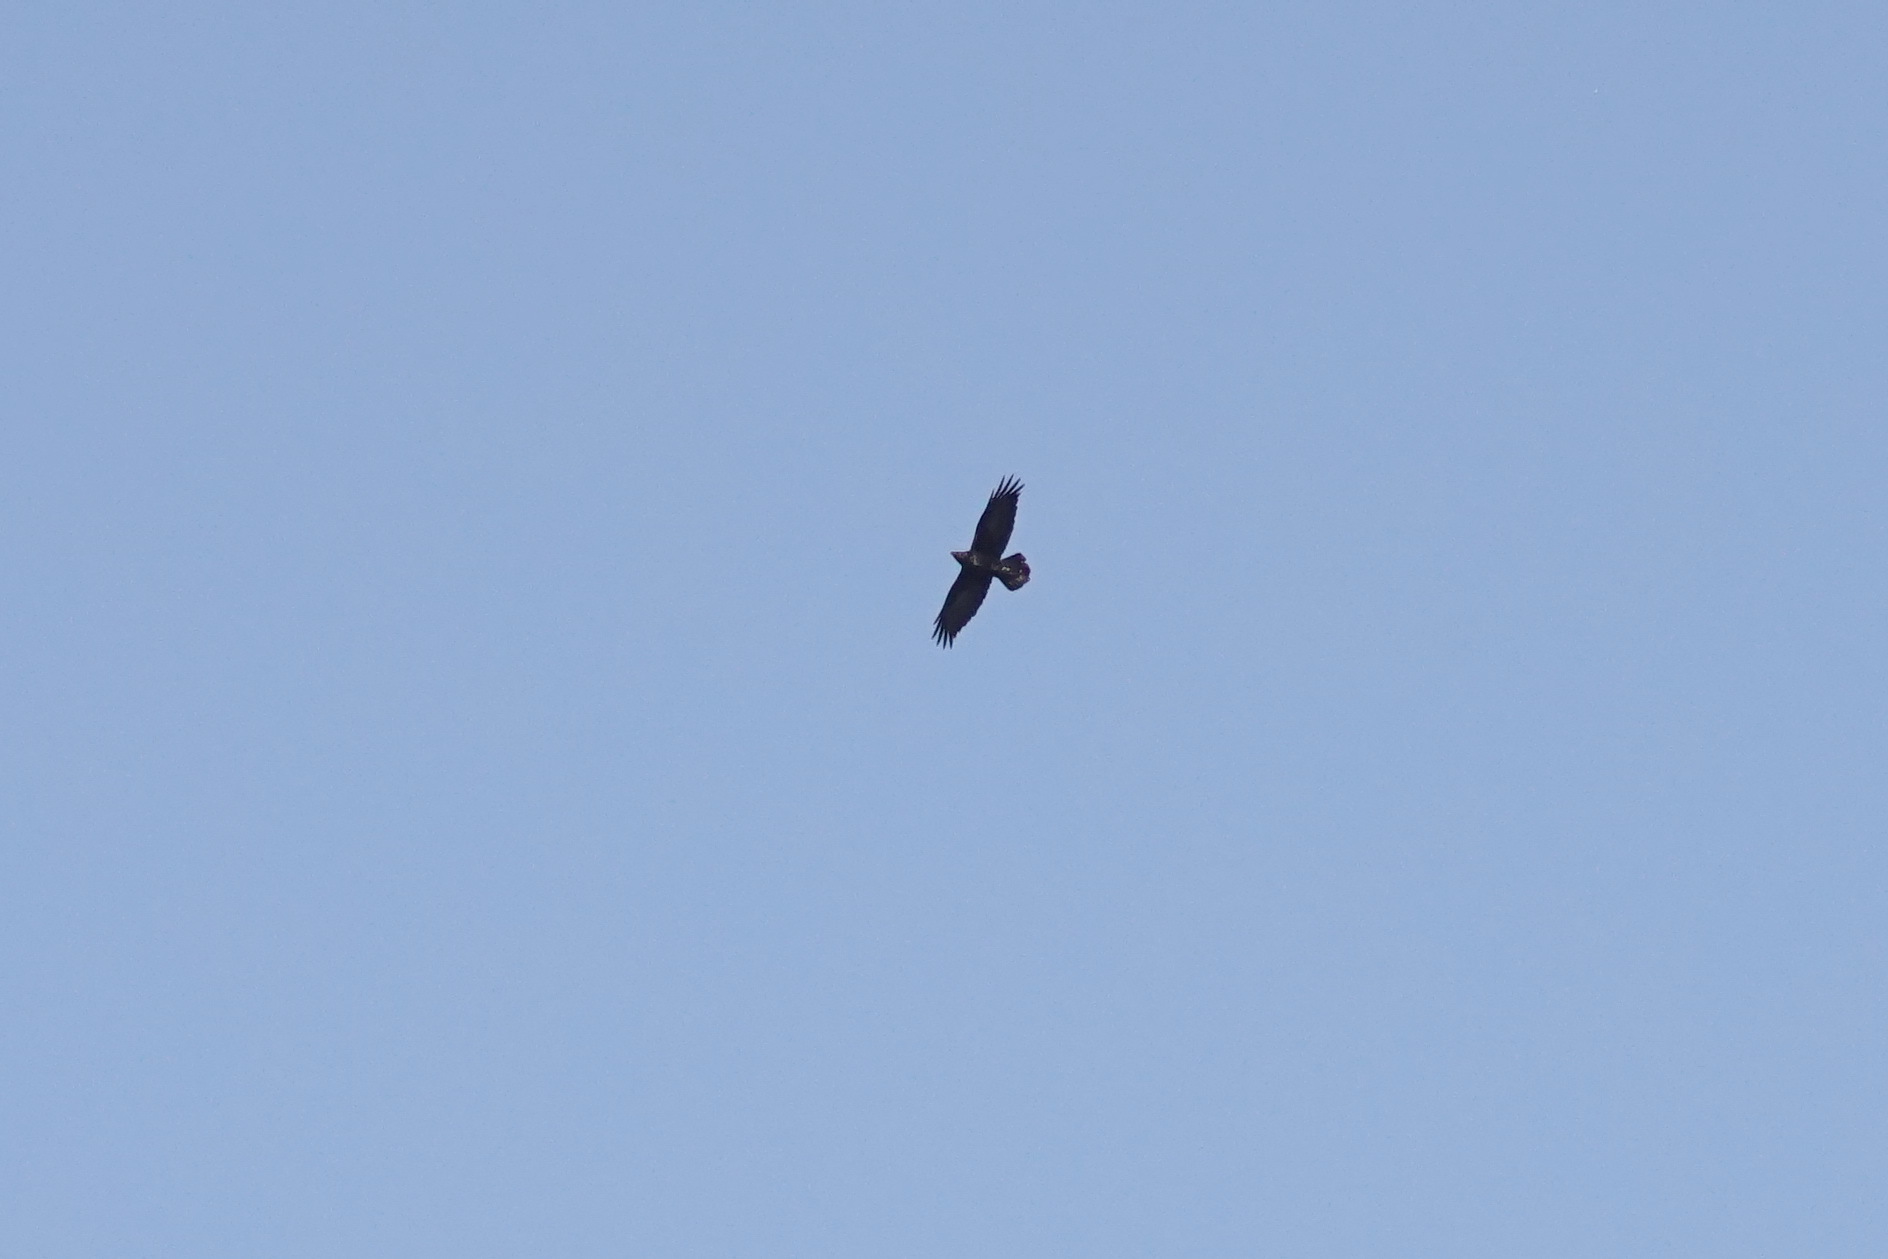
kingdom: Animalia
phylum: Chordata
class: Aves
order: Passeriformes
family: Corvidae
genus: Corvus
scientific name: Corvus corax
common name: Common raven
